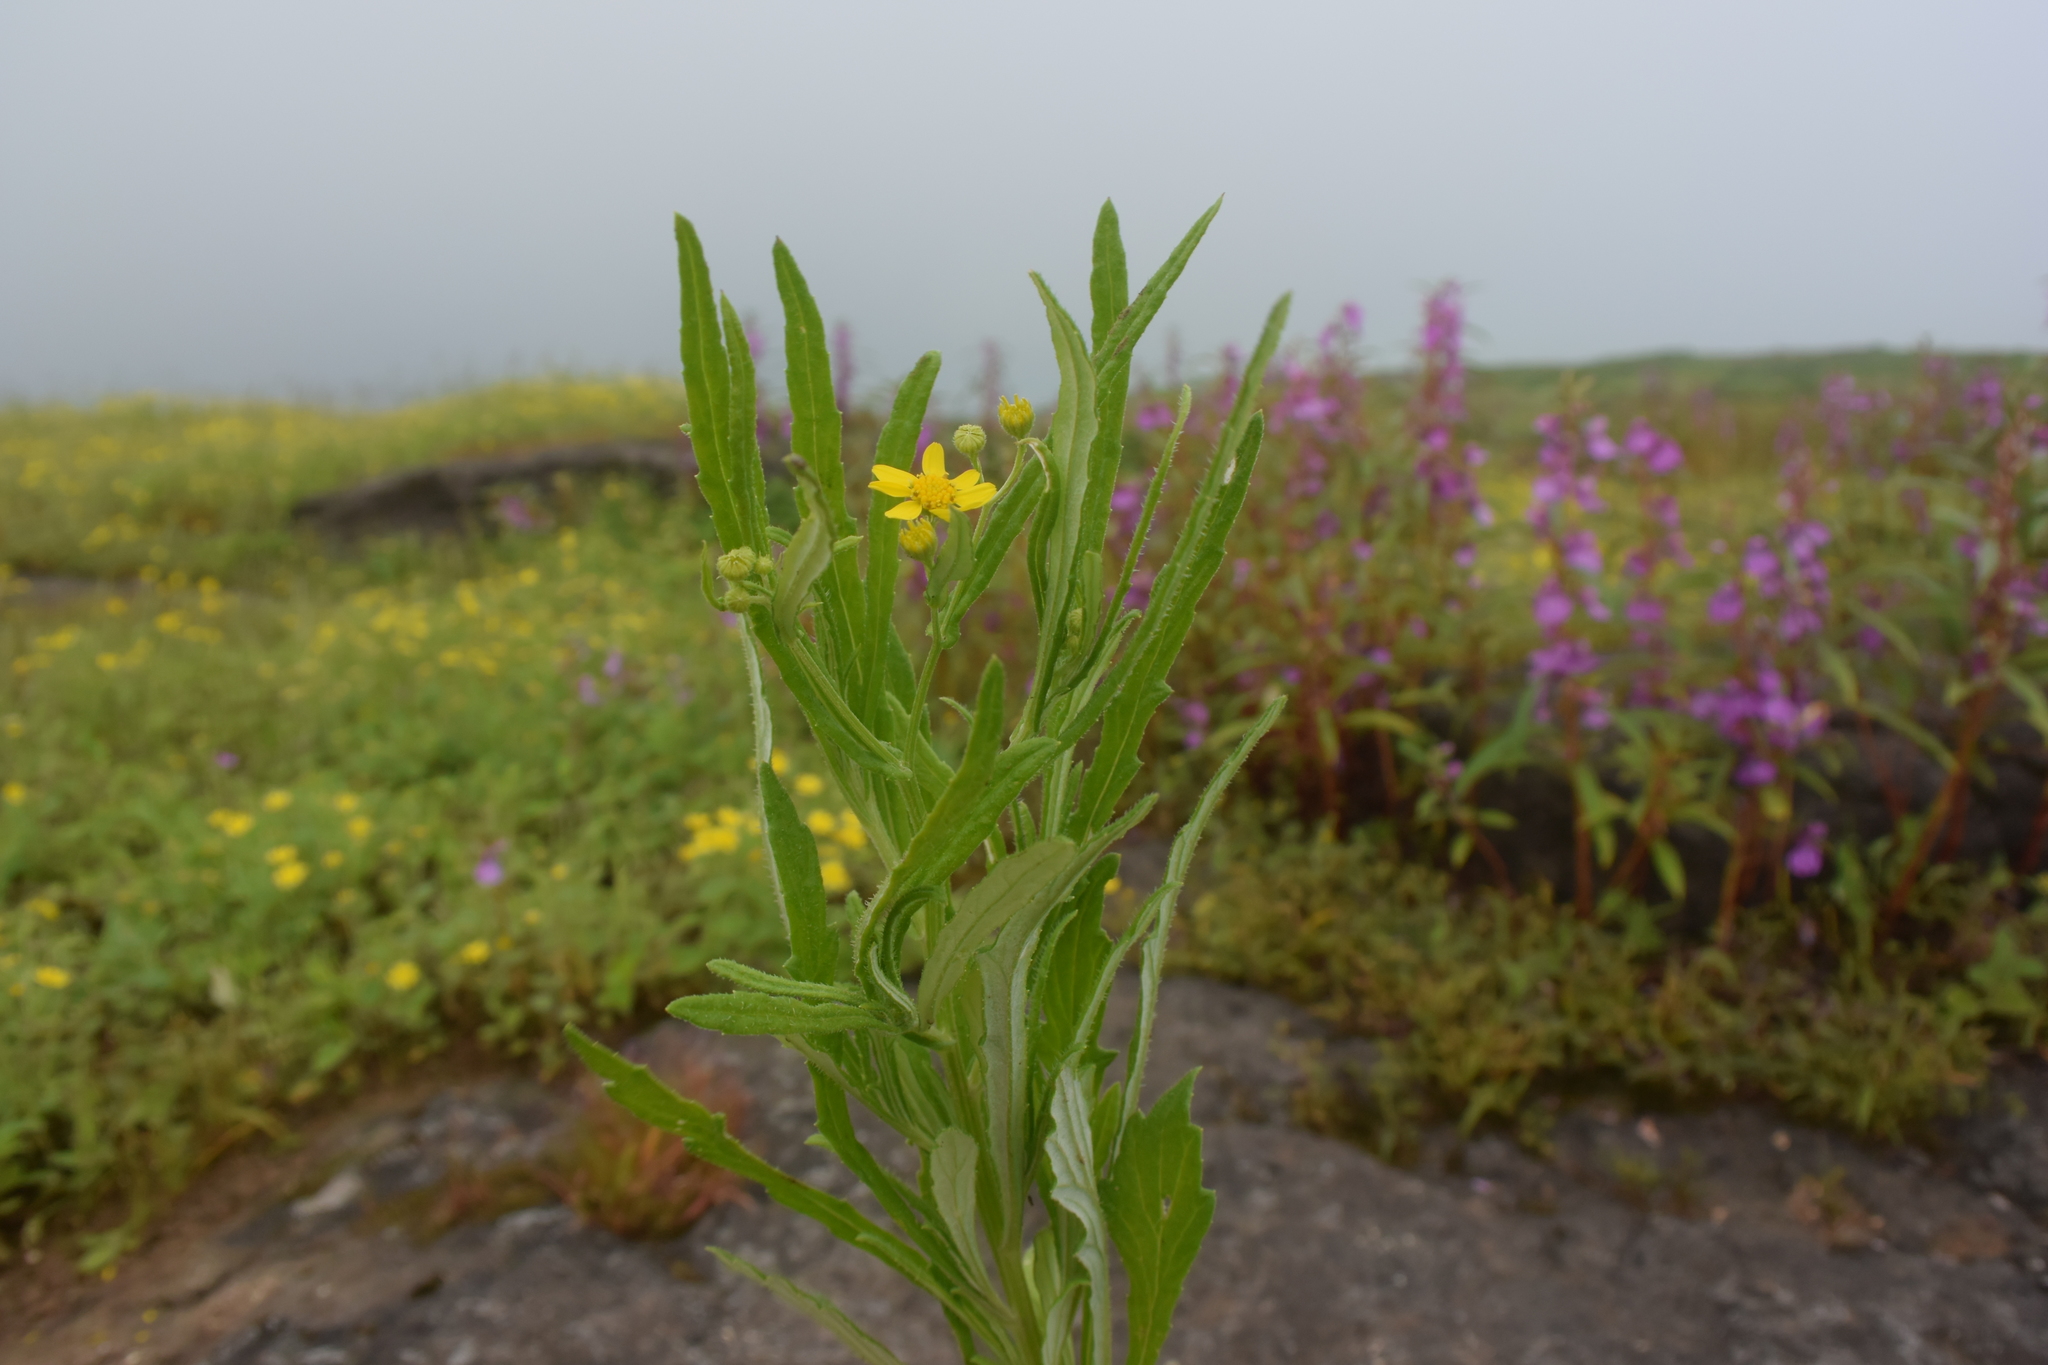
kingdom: Plantae
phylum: Tracheophyta
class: Magnoliopsida
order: Asterales
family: Asteraceae
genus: Senecio
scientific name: Senecio dalzellii
